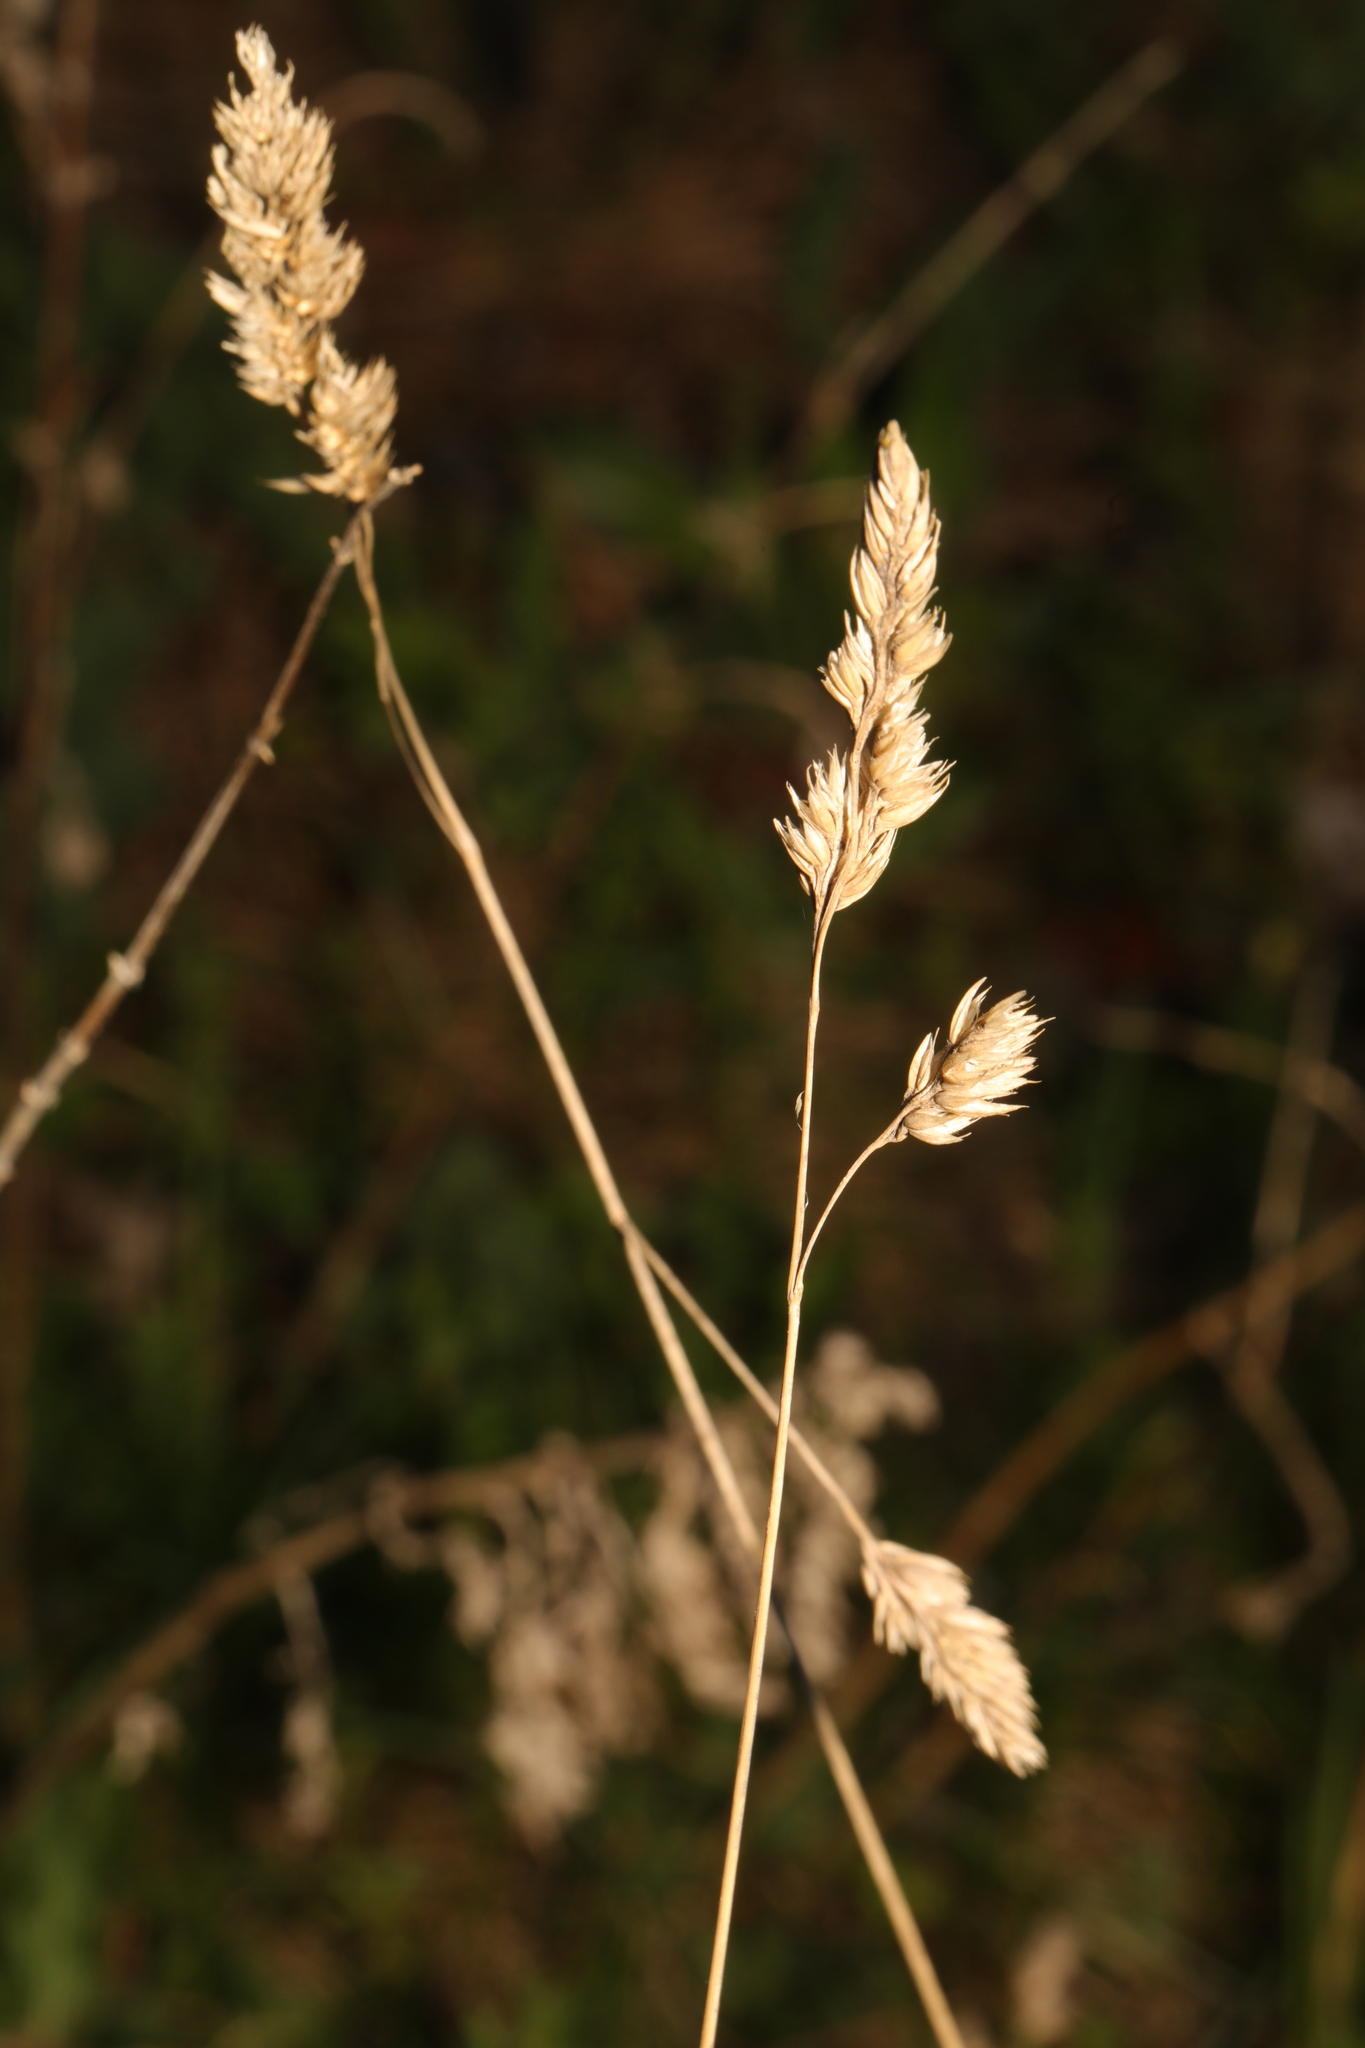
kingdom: Plantae
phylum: Tracheophyta
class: Liliopsida
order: Poales
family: Poaceae
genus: Dactylis
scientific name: Dactylis glomerata
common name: Orchardgrass
